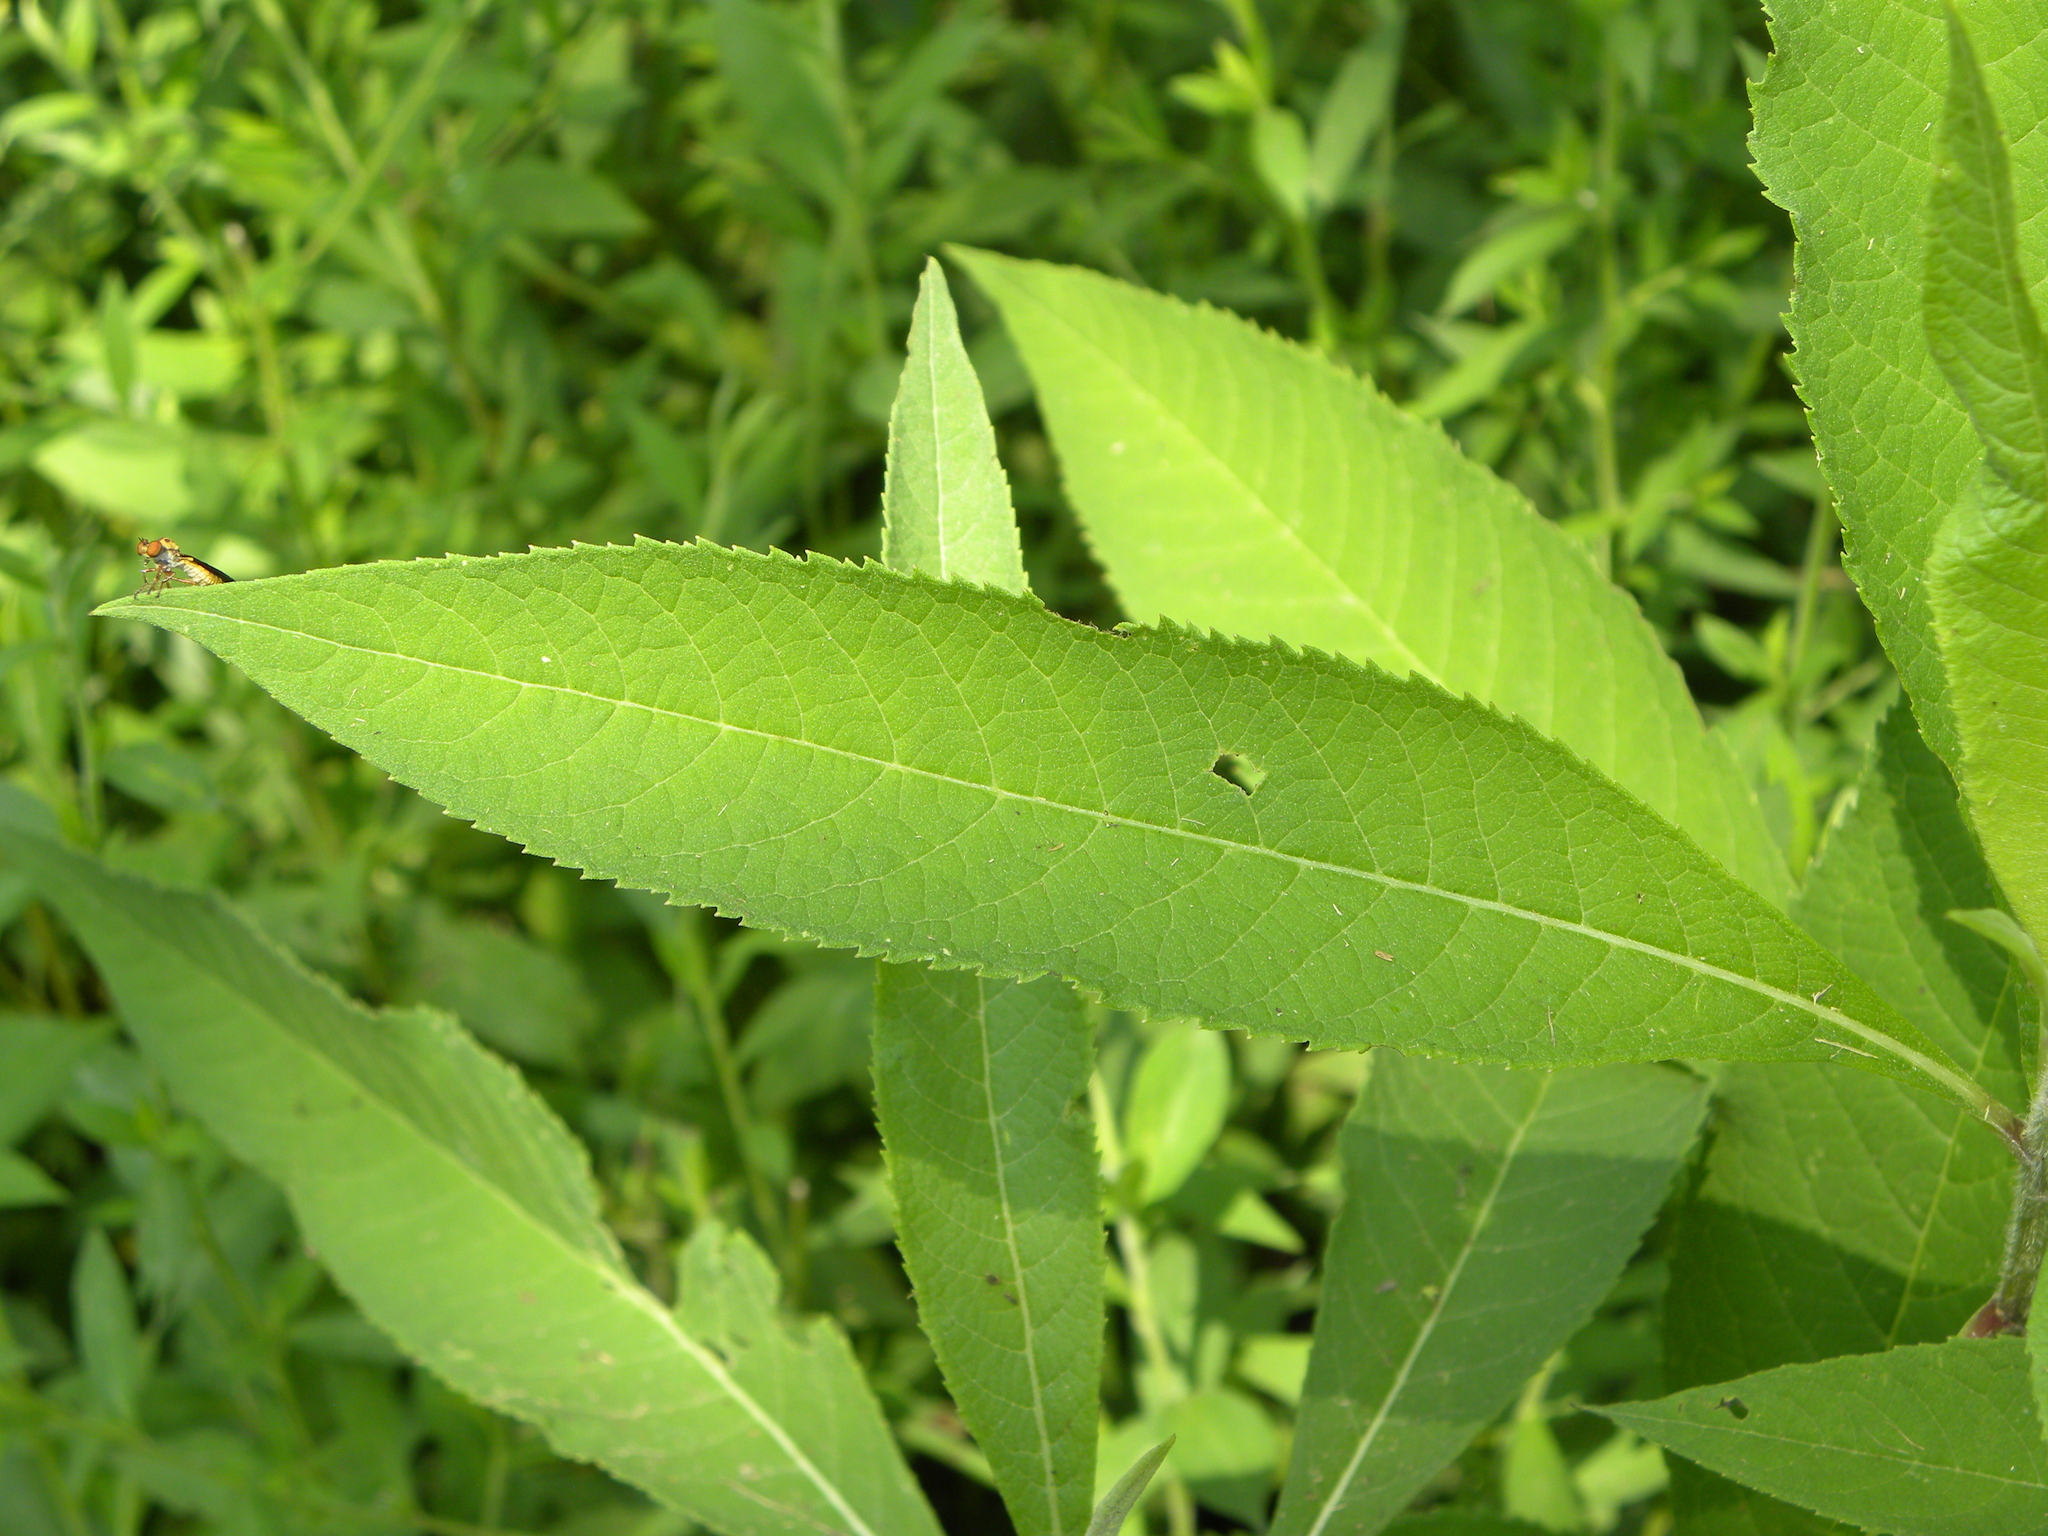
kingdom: Animalia
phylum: Arthropoda
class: Insecta
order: Diptera
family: Asilidae
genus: Holcocephala
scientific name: Holcocephala
